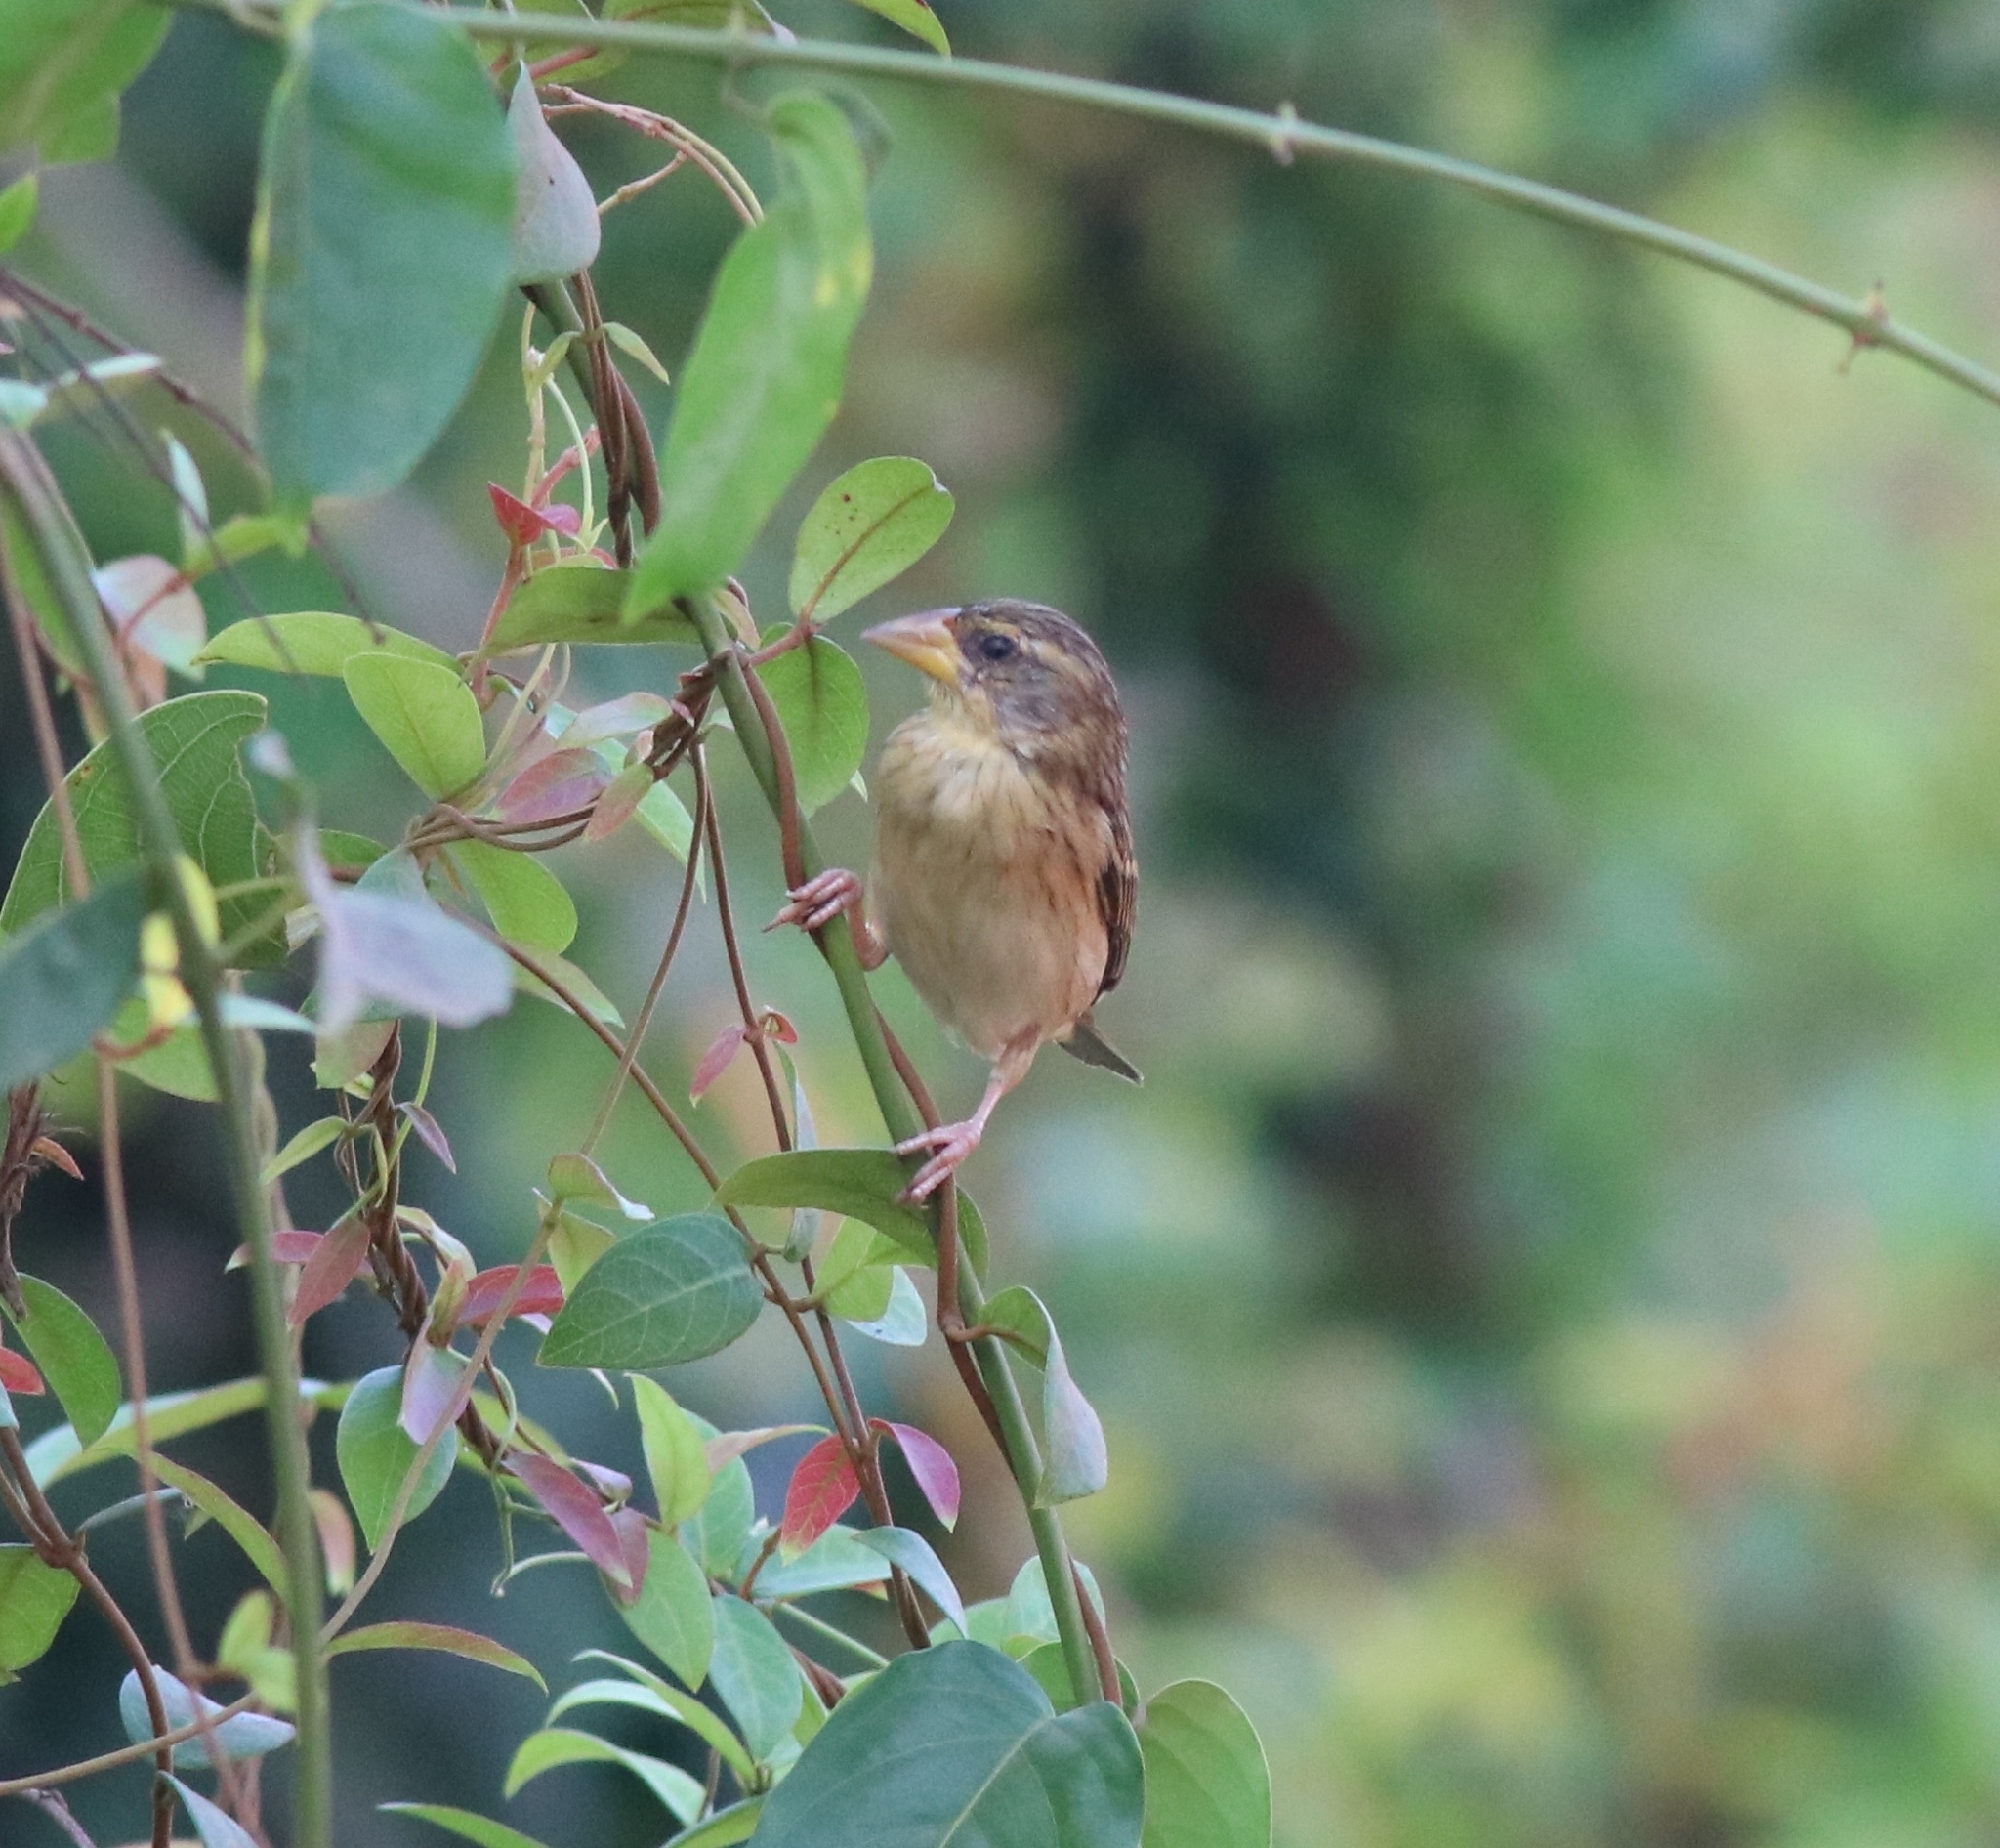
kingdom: Animalia
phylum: Chordata
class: Aves
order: Passeriformes
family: Ploceidae
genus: Ploceus
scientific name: Ploceus philippinus
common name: Baya weaver
